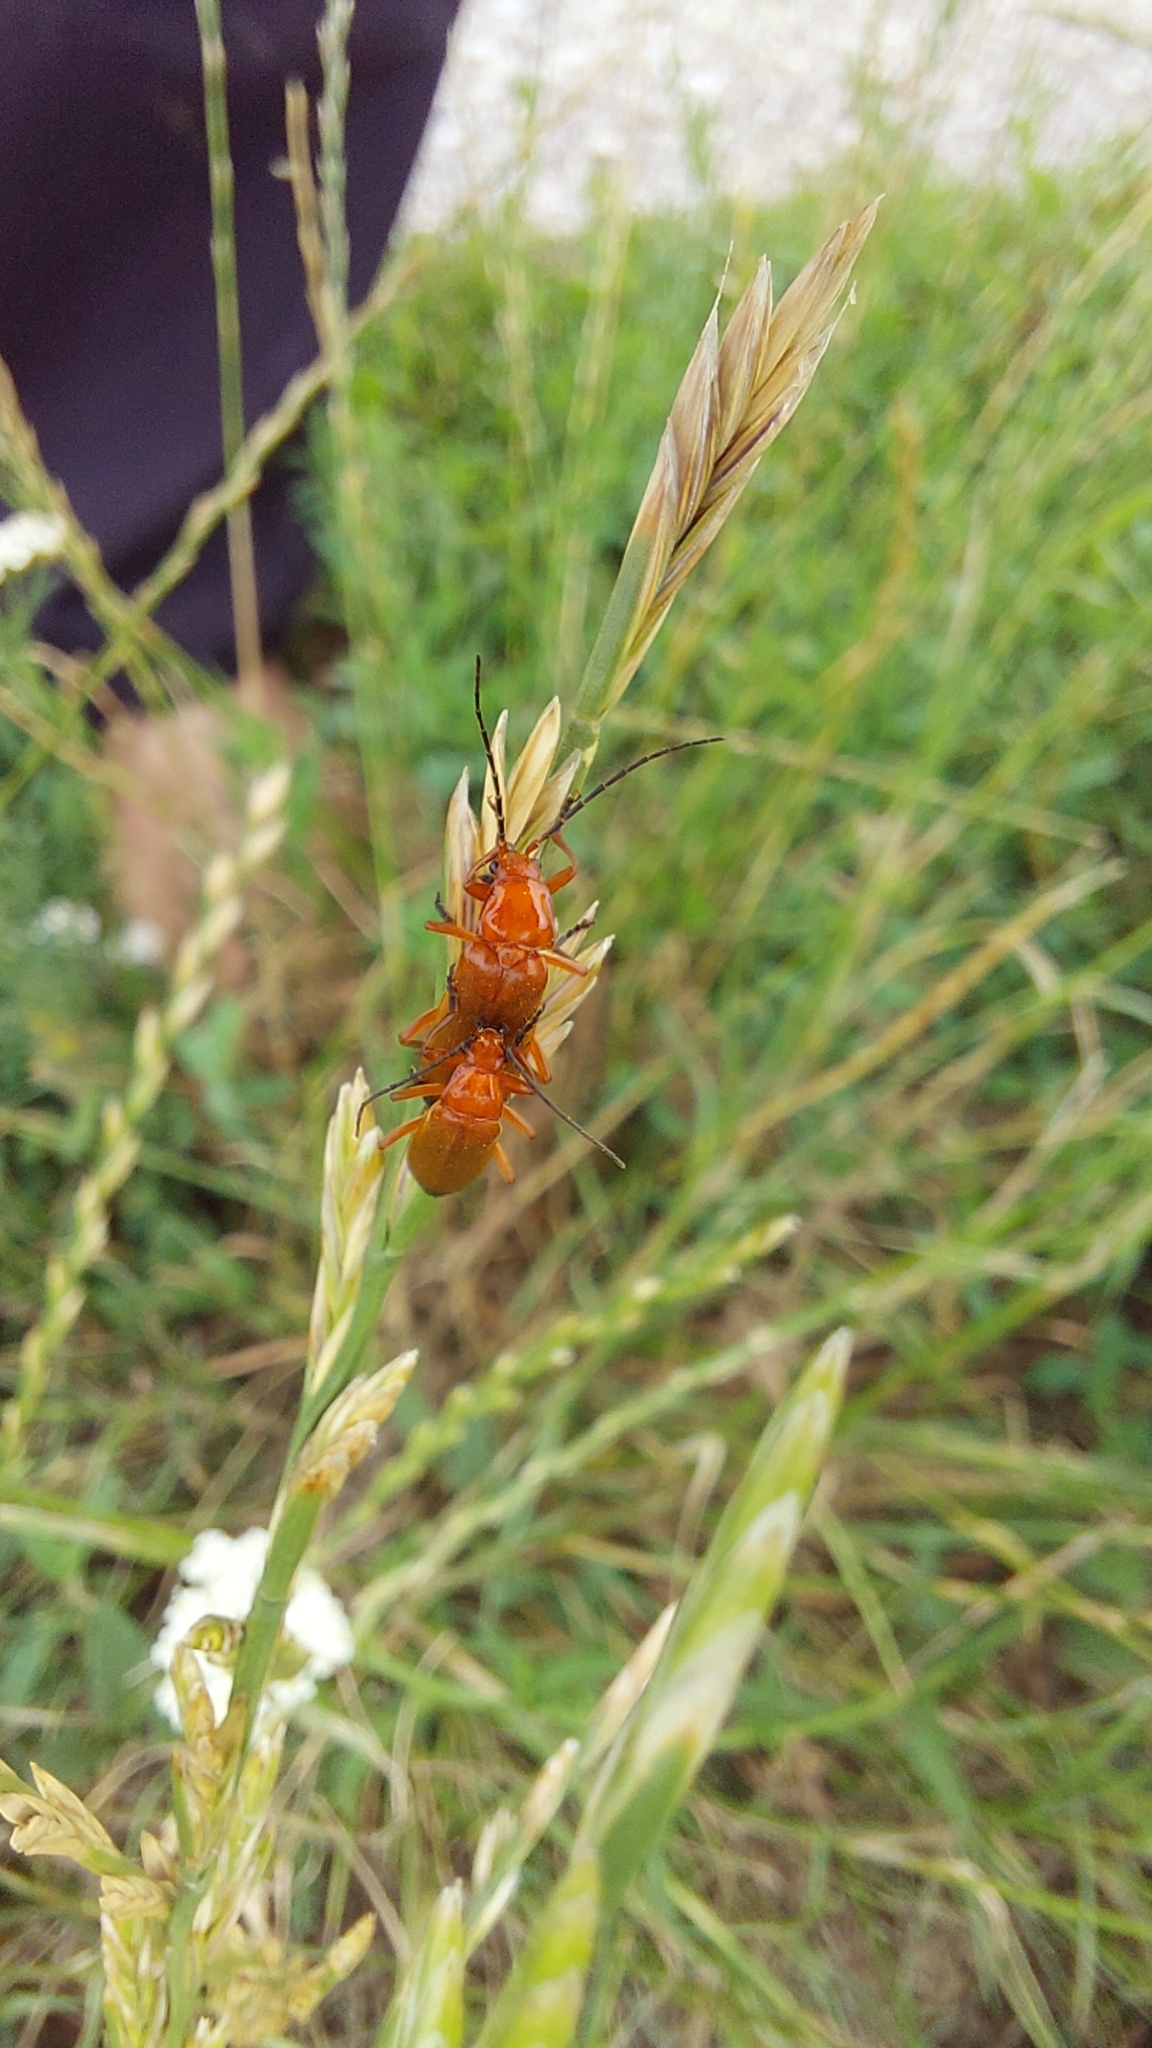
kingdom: Animalia
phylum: Arthropoda
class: Insecta
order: Coleoptera
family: Cantharidae
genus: Rhagonycha
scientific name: Rhagonycha fulva
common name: Common red soldier beetle
